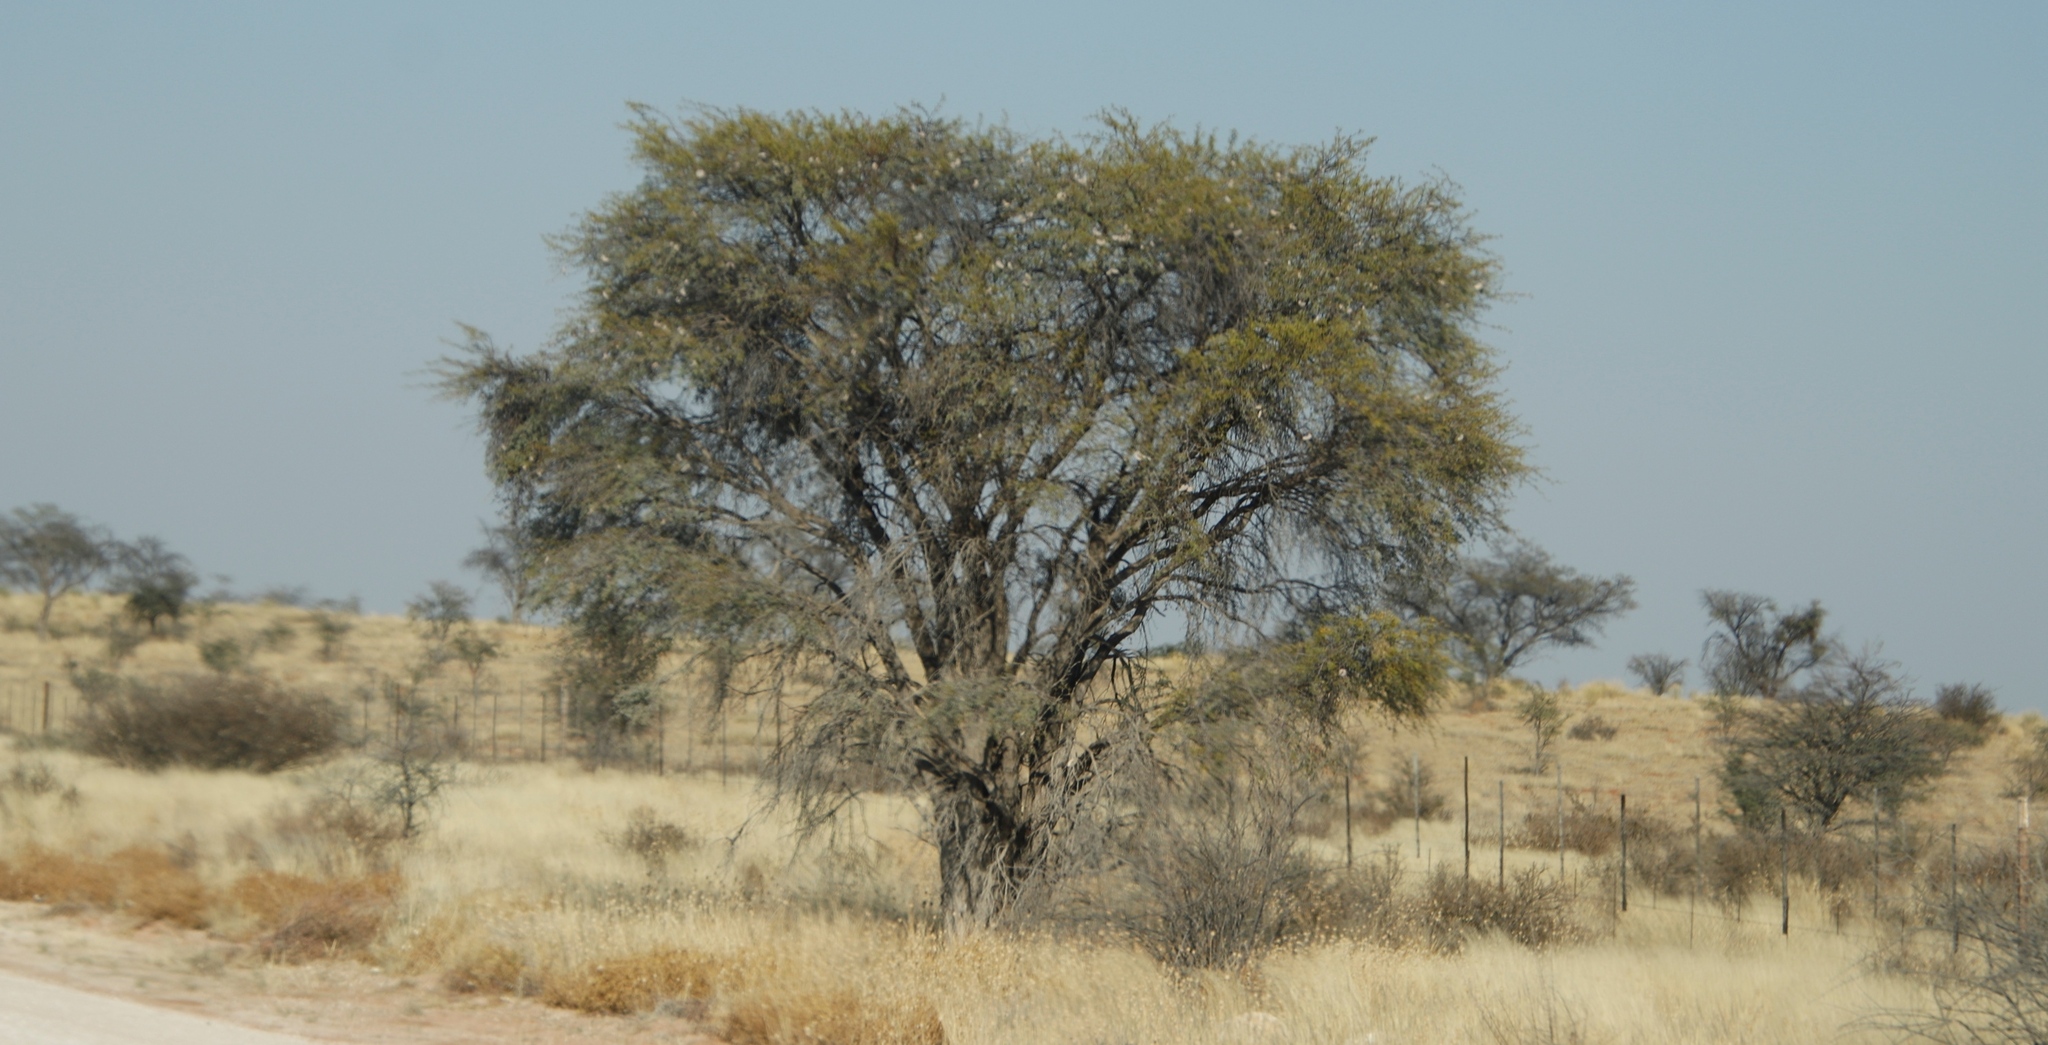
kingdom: Plantae
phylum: Tracheophyta
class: Magnoliopsida
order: Fabales
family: Fabaceae
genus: Vachellia
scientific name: Vachellia erioloba
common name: Camel thorn
